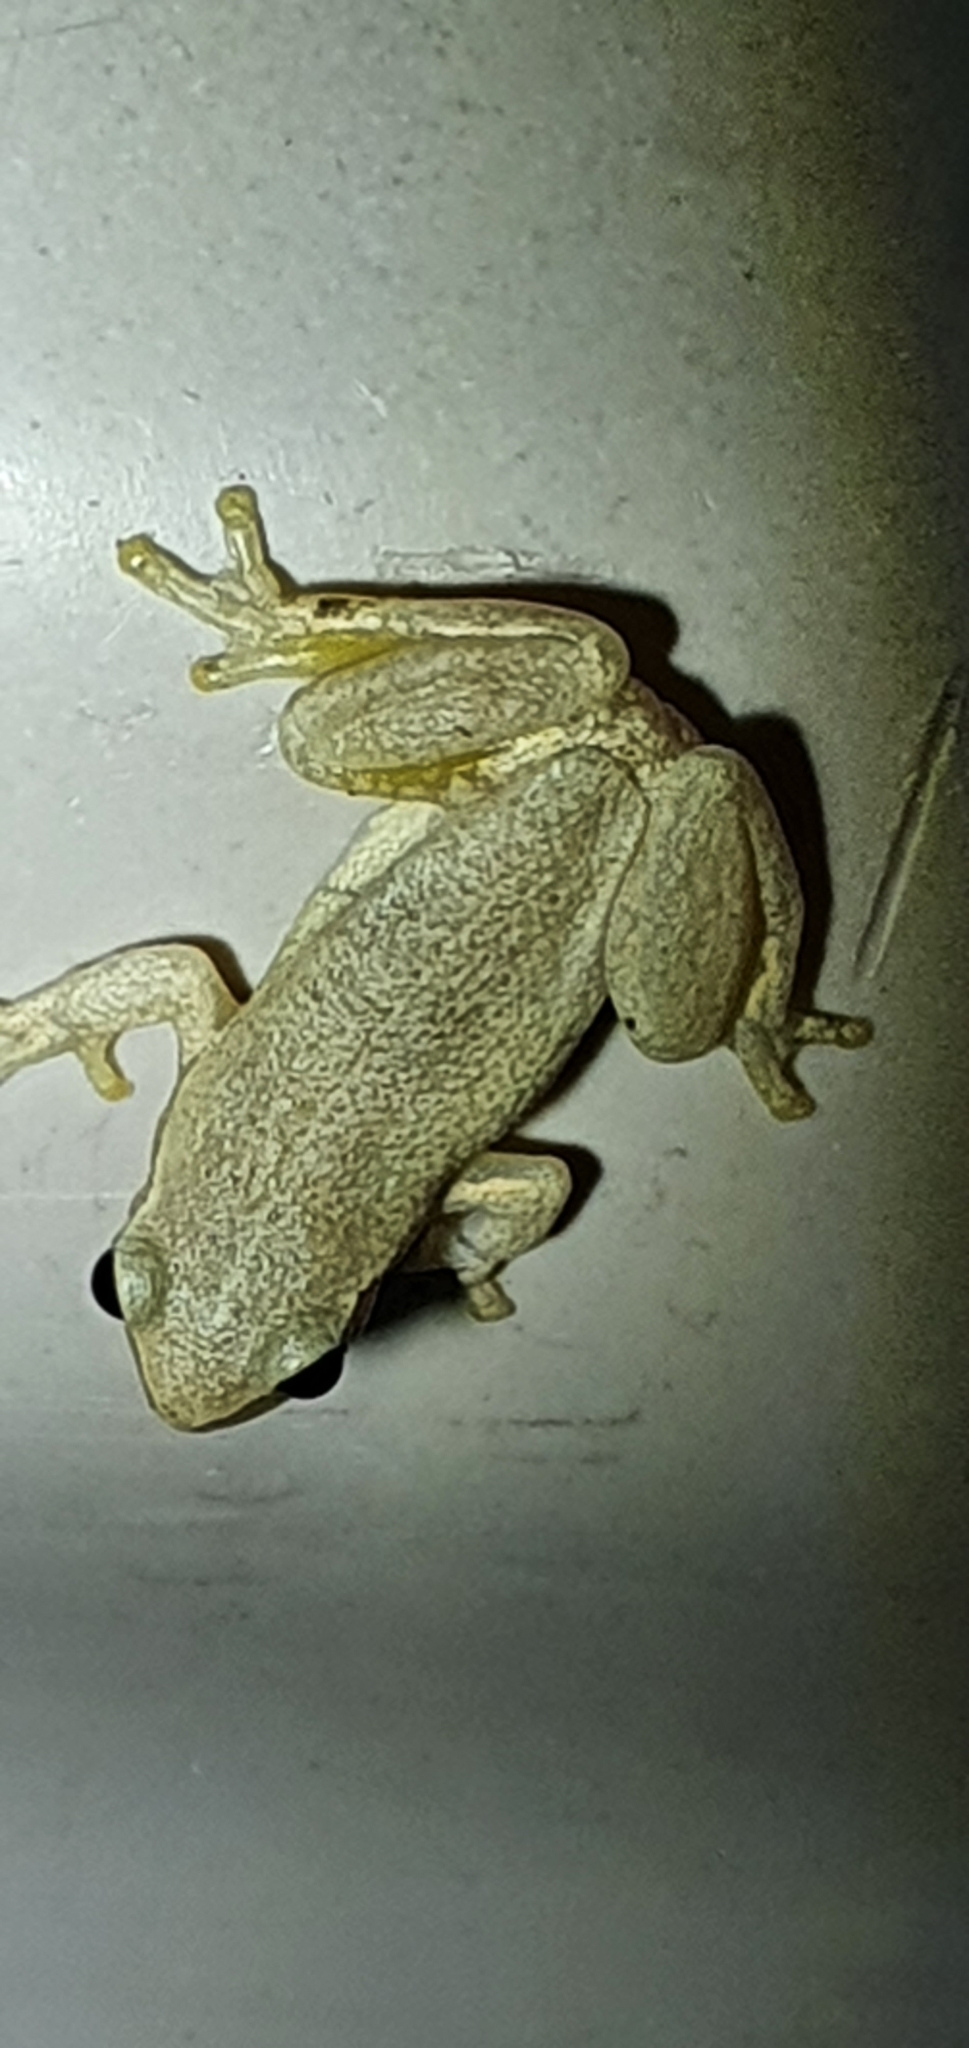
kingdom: Animalia
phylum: Chordata
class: Amphibia
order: Anura
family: Pelodryadidae
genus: Litoria
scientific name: Litoria rubella
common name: Desert tree frog
